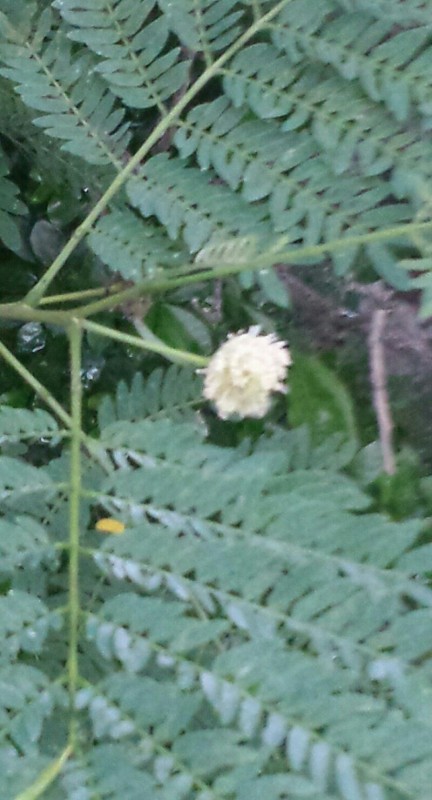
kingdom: Plantae
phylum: Tracheophyta
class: Magnoliopsida
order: Fabales
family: Fabaceae
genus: Leucaena
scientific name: Leucaena leucocephala
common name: White leadtree
